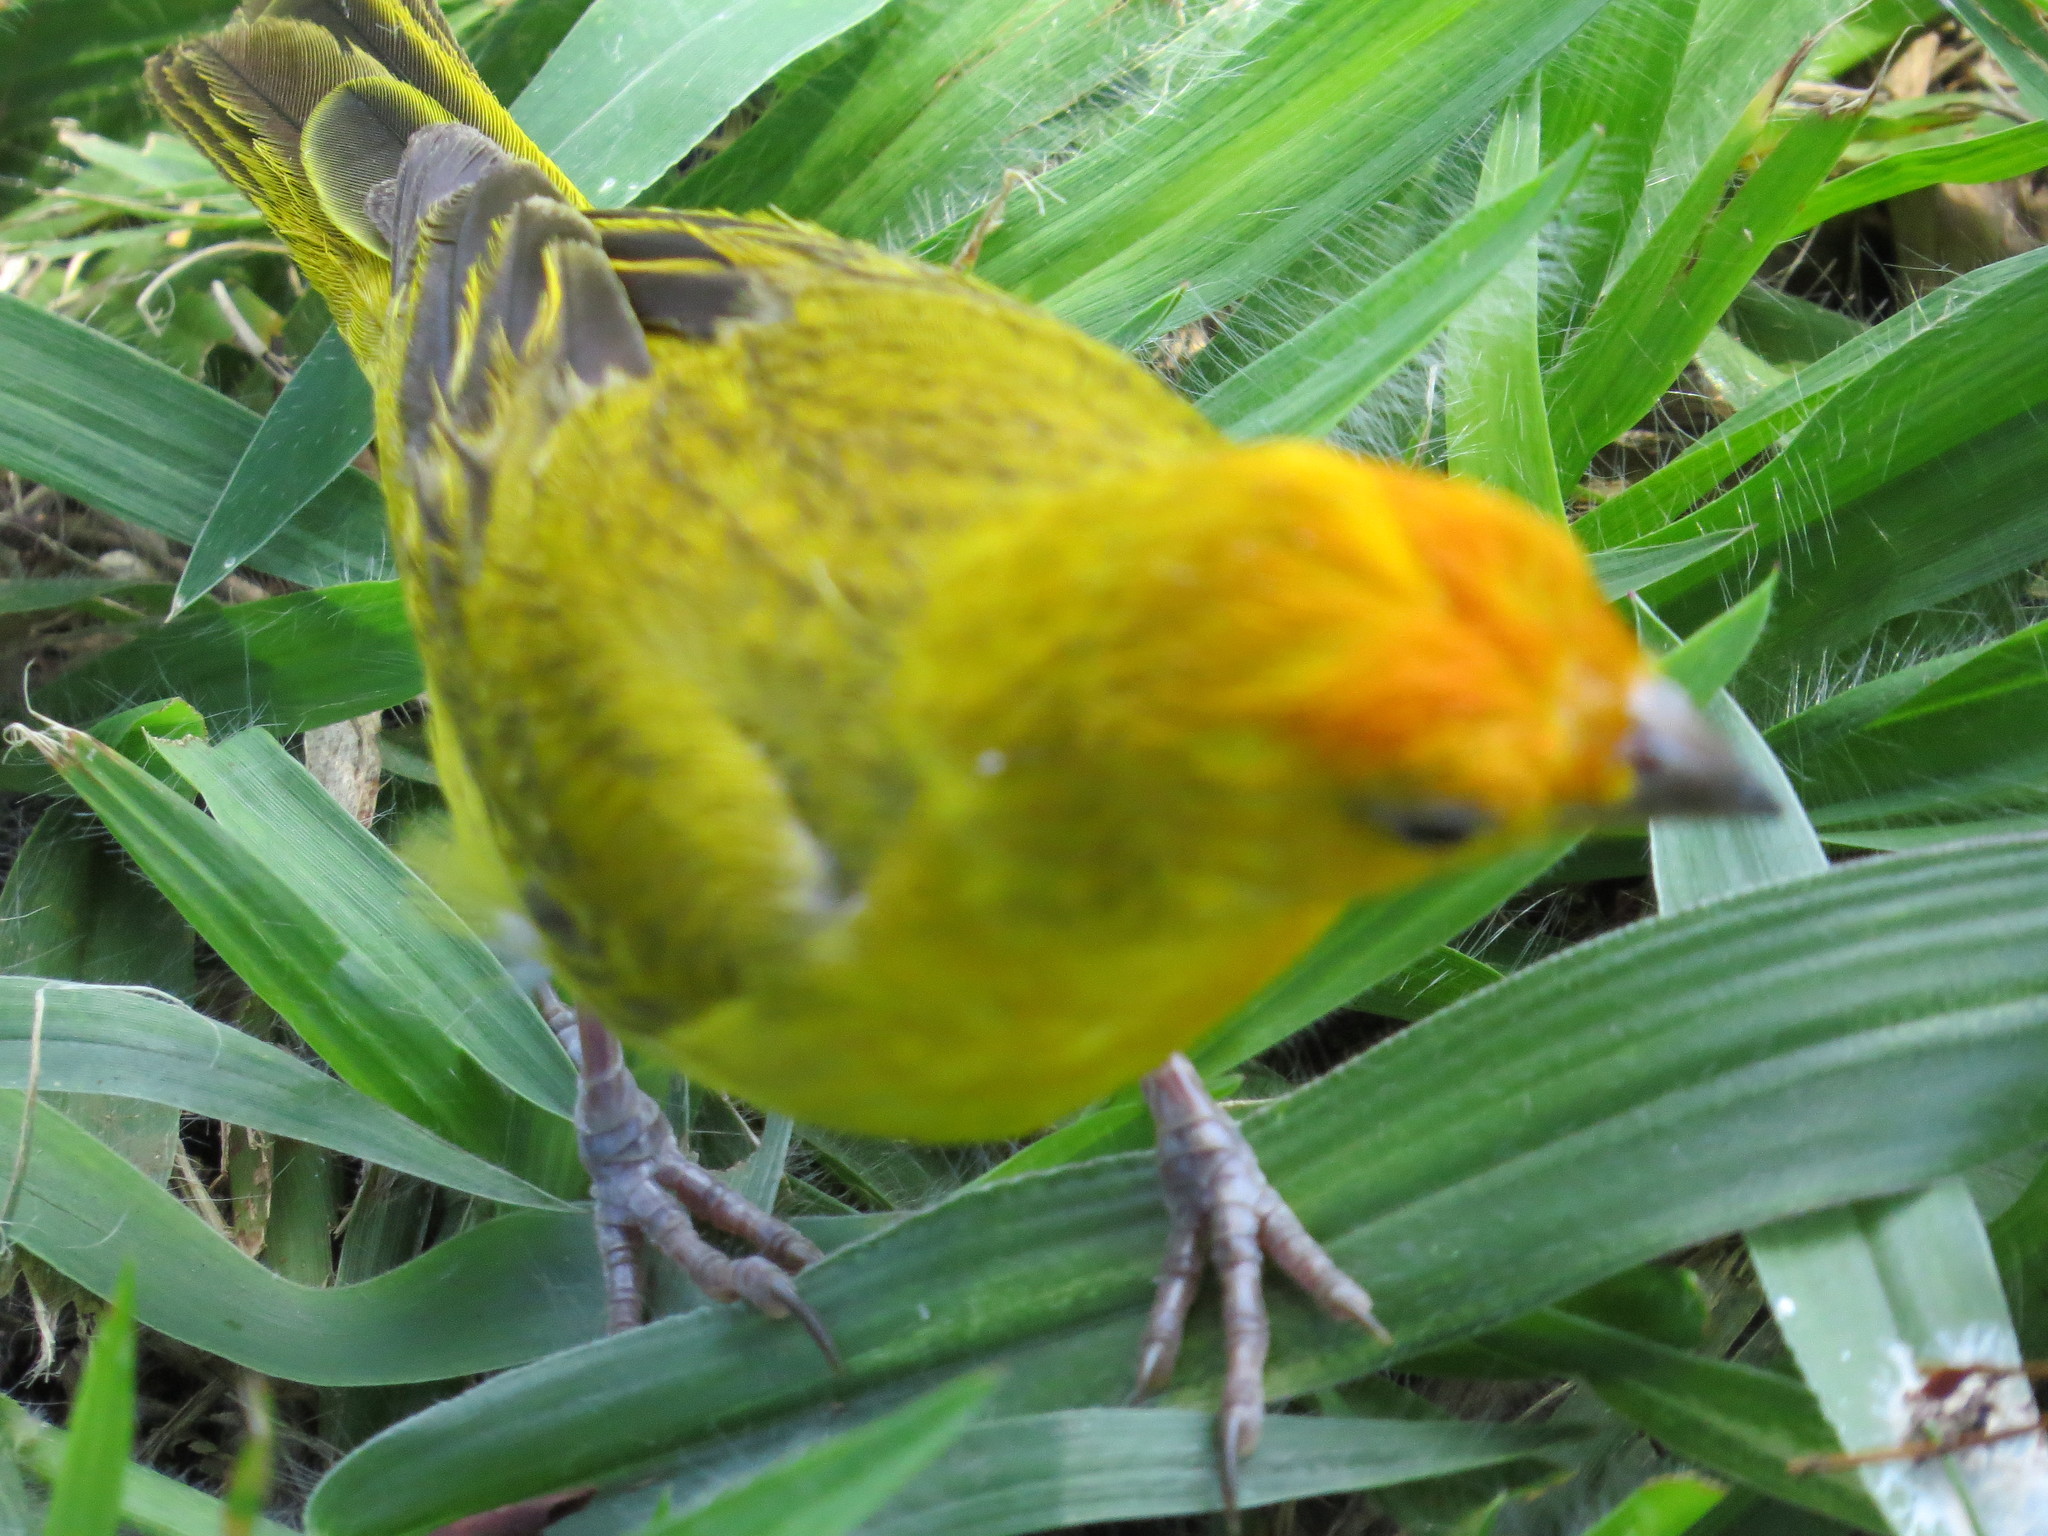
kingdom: Animalia
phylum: Chordata
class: Aves
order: Passeriformes
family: Thraupidae
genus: Sicalis
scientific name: Sicalis flaveola
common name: Saffron finch
